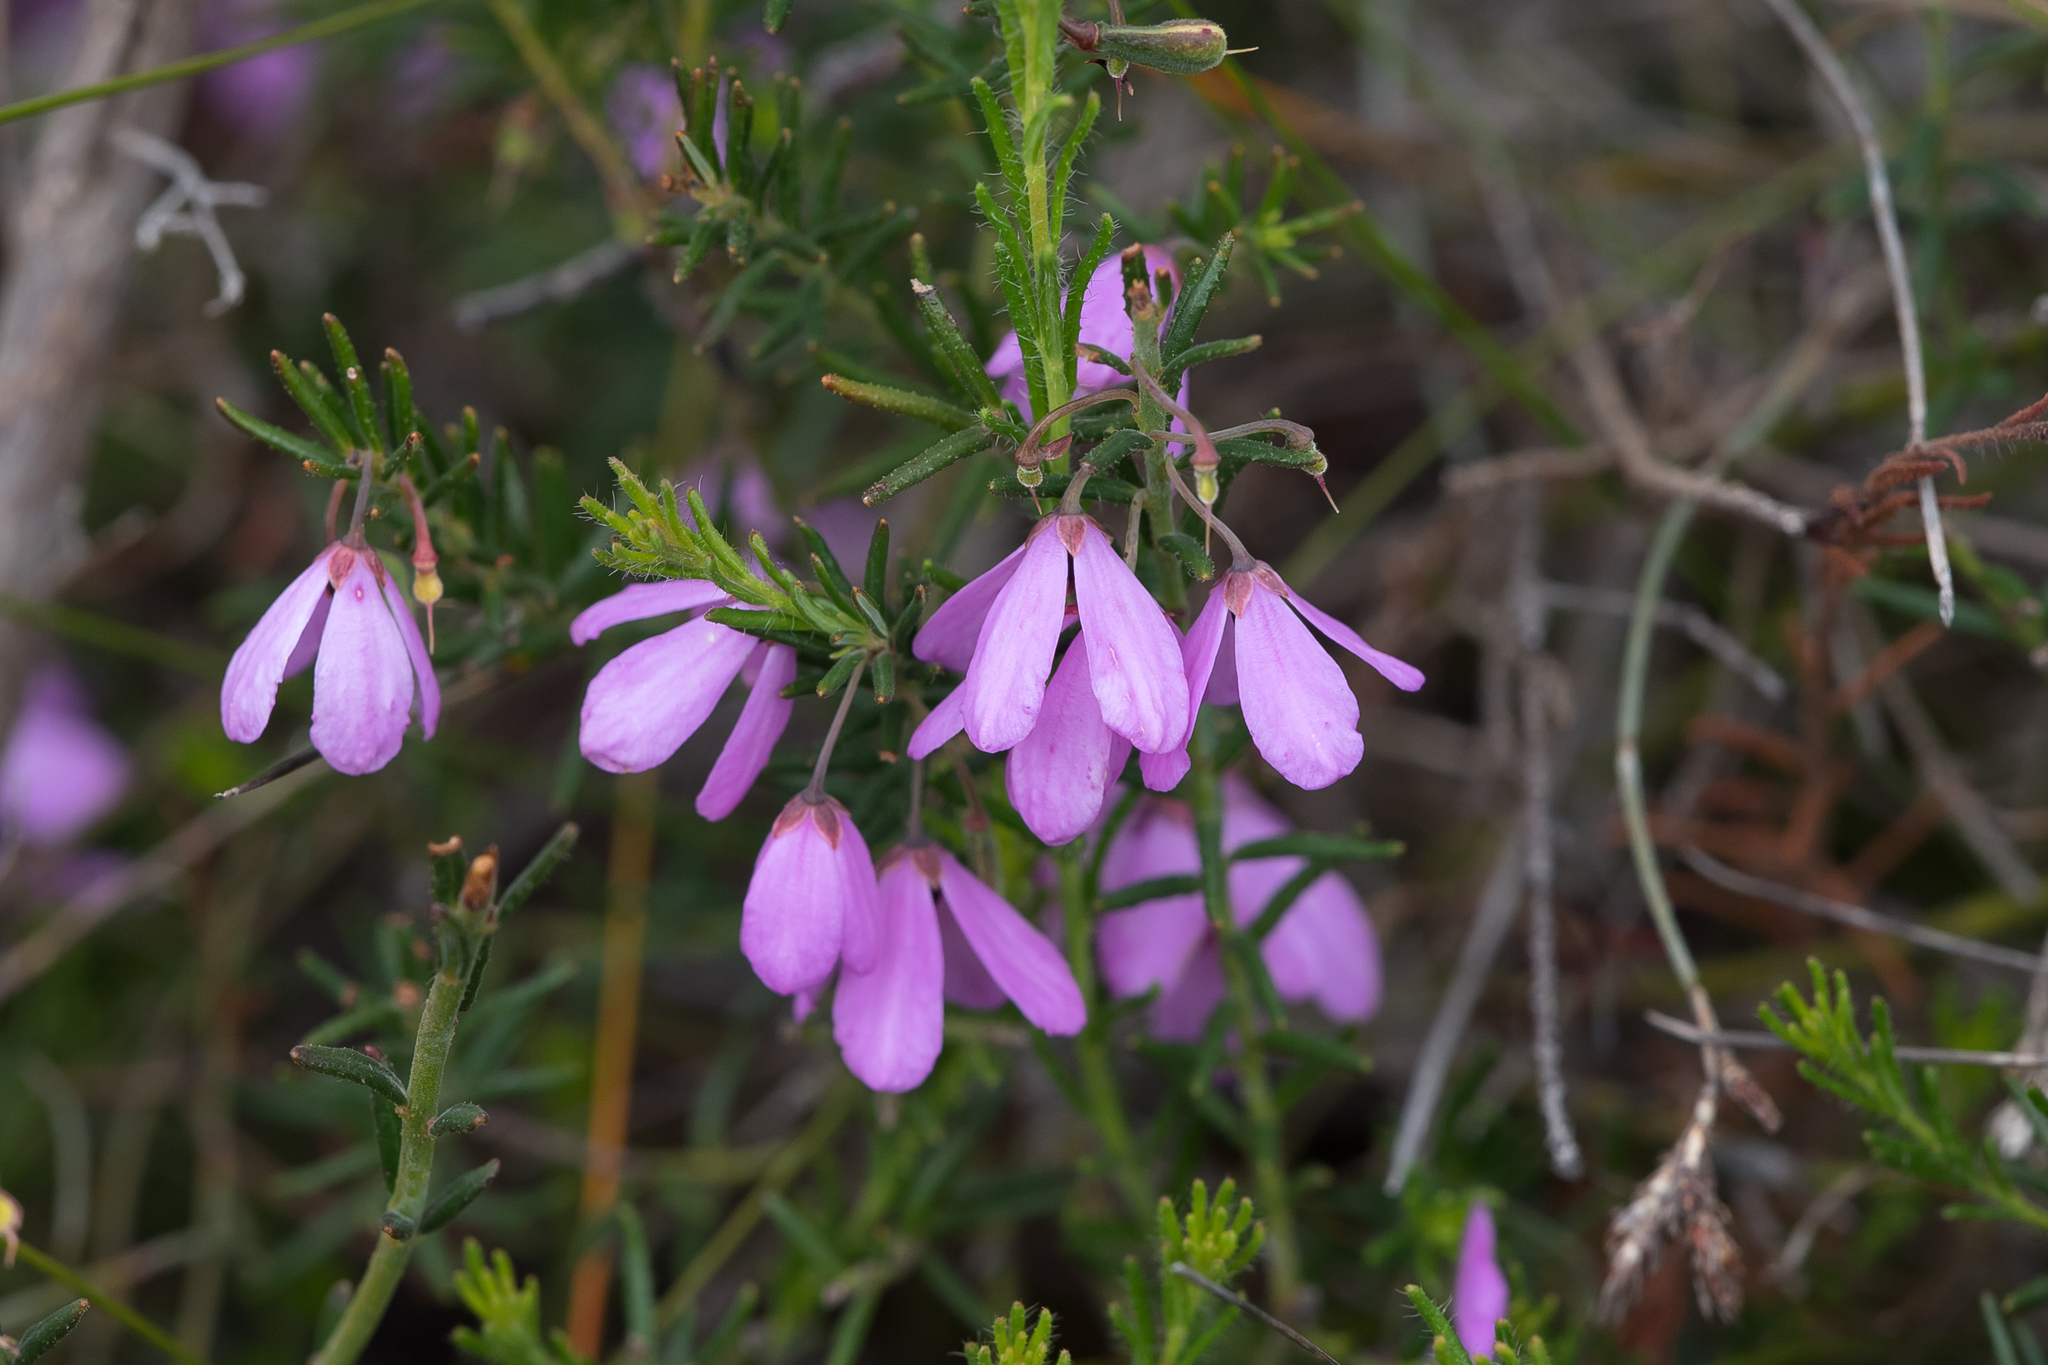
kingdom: Plantae
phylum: Tracheophyta
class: Magnoliopsida
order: Oxalidales
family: Elaeocarpaceae
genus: Tetratheca
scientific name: Tetratheca pilosa
